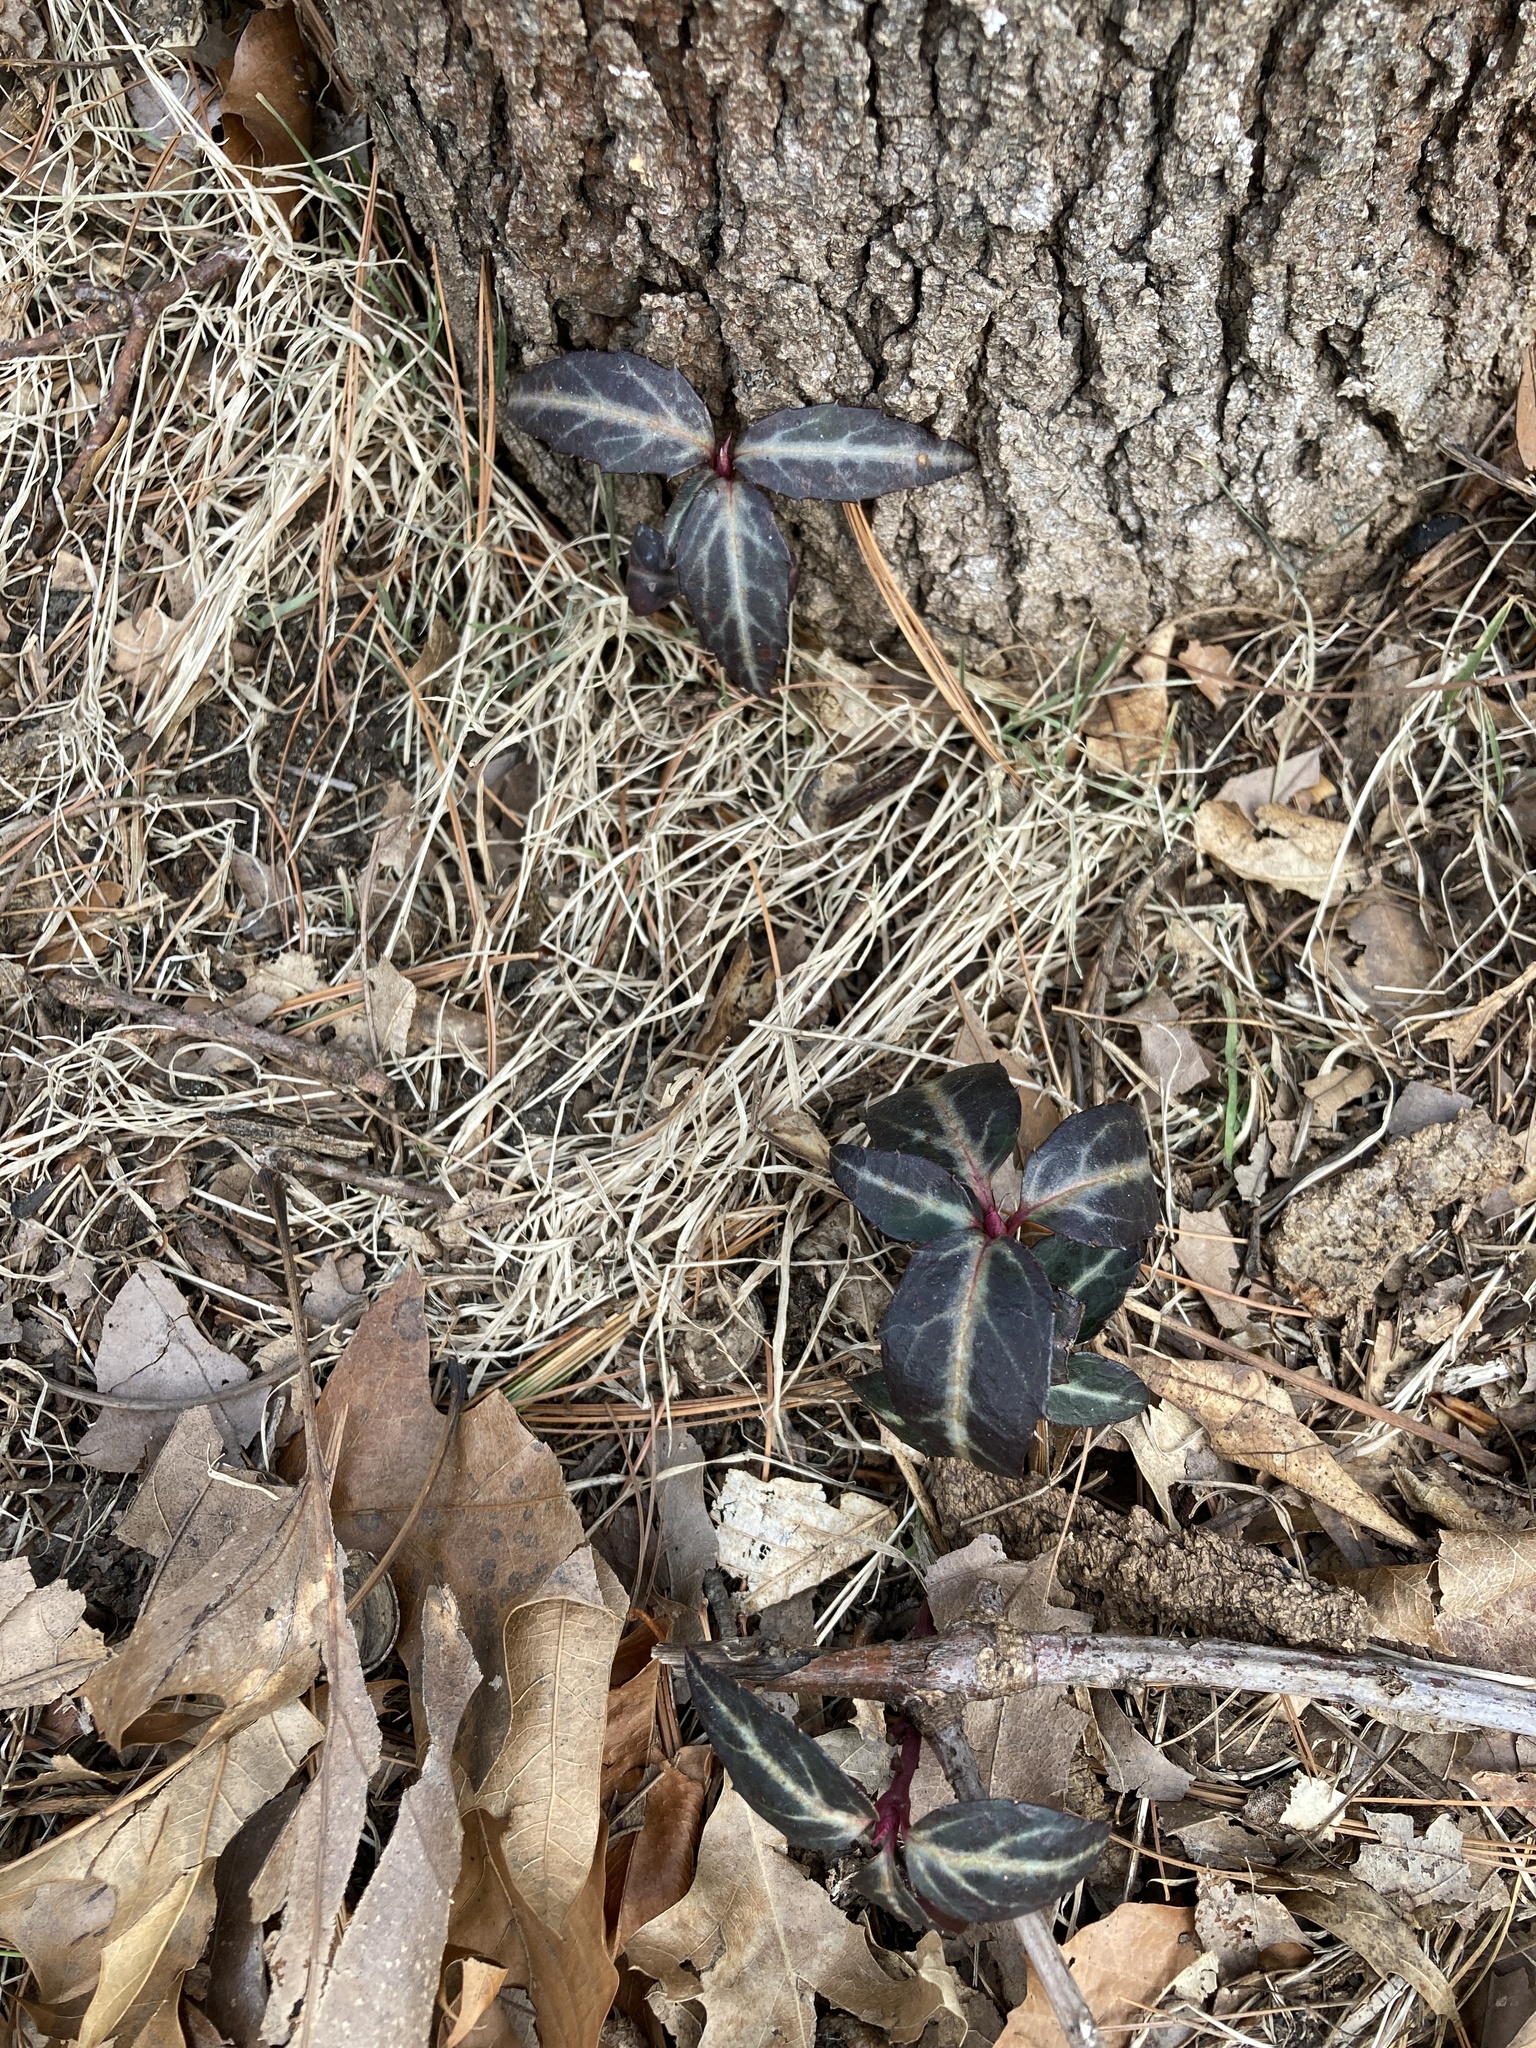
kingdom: Plantae
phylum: Tracheophyta
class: Magnoliopsida
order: Ericales
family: Ericaceae
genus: Chimaphila
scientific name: Chimaphila maculata
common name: Spotted pipsissewa
